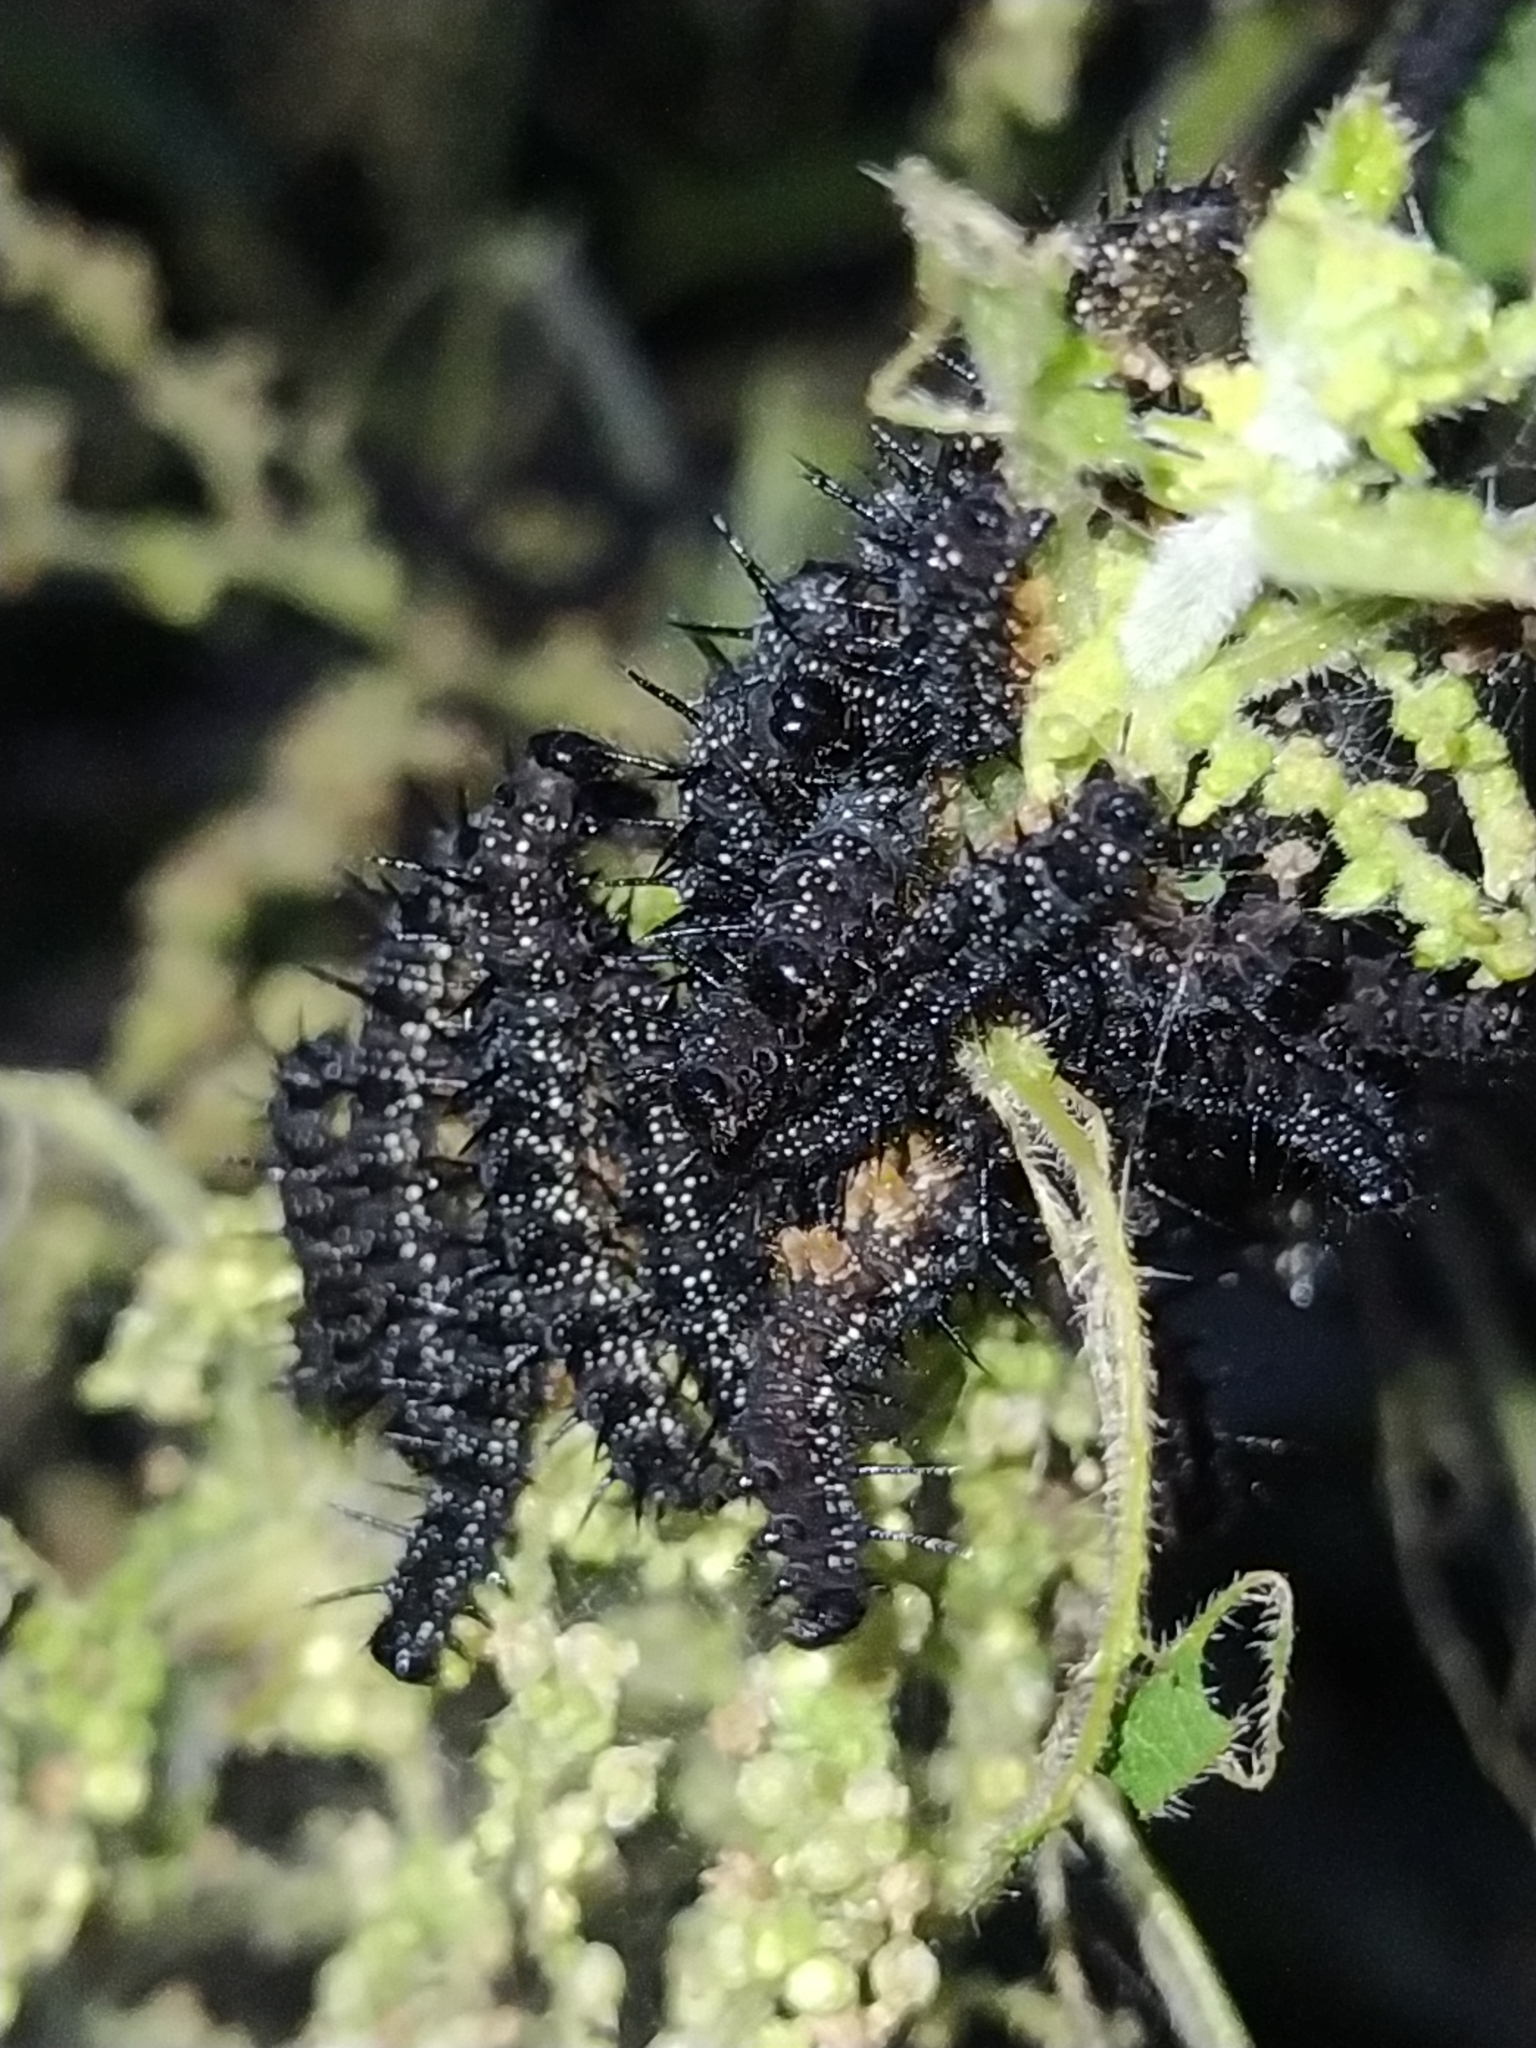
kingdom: Animalia
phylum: Arthropoda
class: Insecta
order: Lepidoptera
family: Nymphalidae
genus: Aglais
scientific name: Aglais io
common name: Peacock
